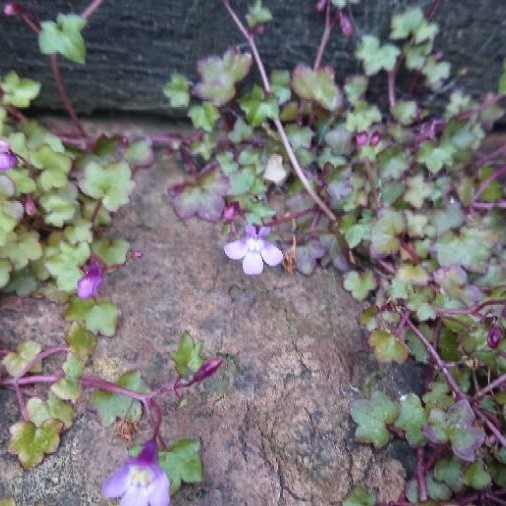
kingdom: Plantae
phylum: Tracheophyta
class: Magnoliopsida
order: Lamiales
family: Plantaginaceae
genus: Cymbalaria
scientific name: Cymbalaria muralis
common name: Ivy-leaved toadflax
